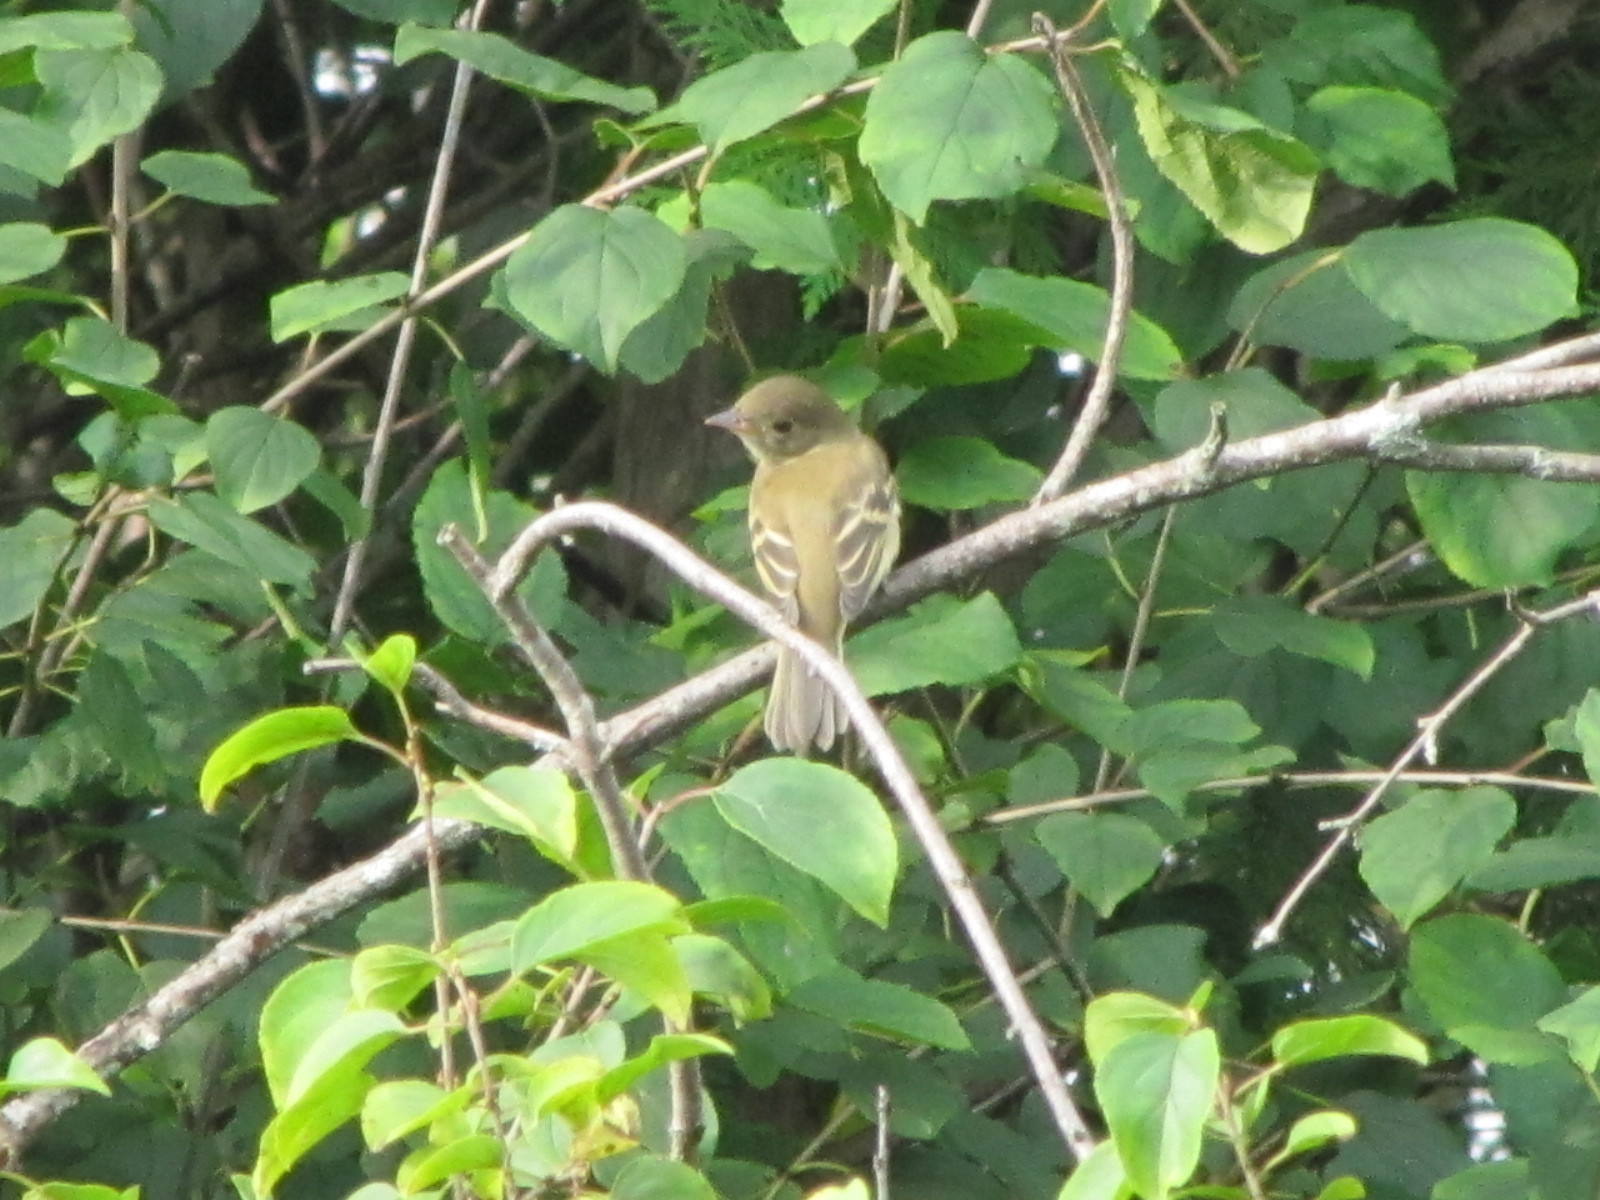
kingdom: Animalia
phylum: Chordata
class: Aves
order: Passeriformes
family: Tyrannidae
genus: Empidonax
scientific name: Empidonax alnorum
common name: Alder flycatcher
